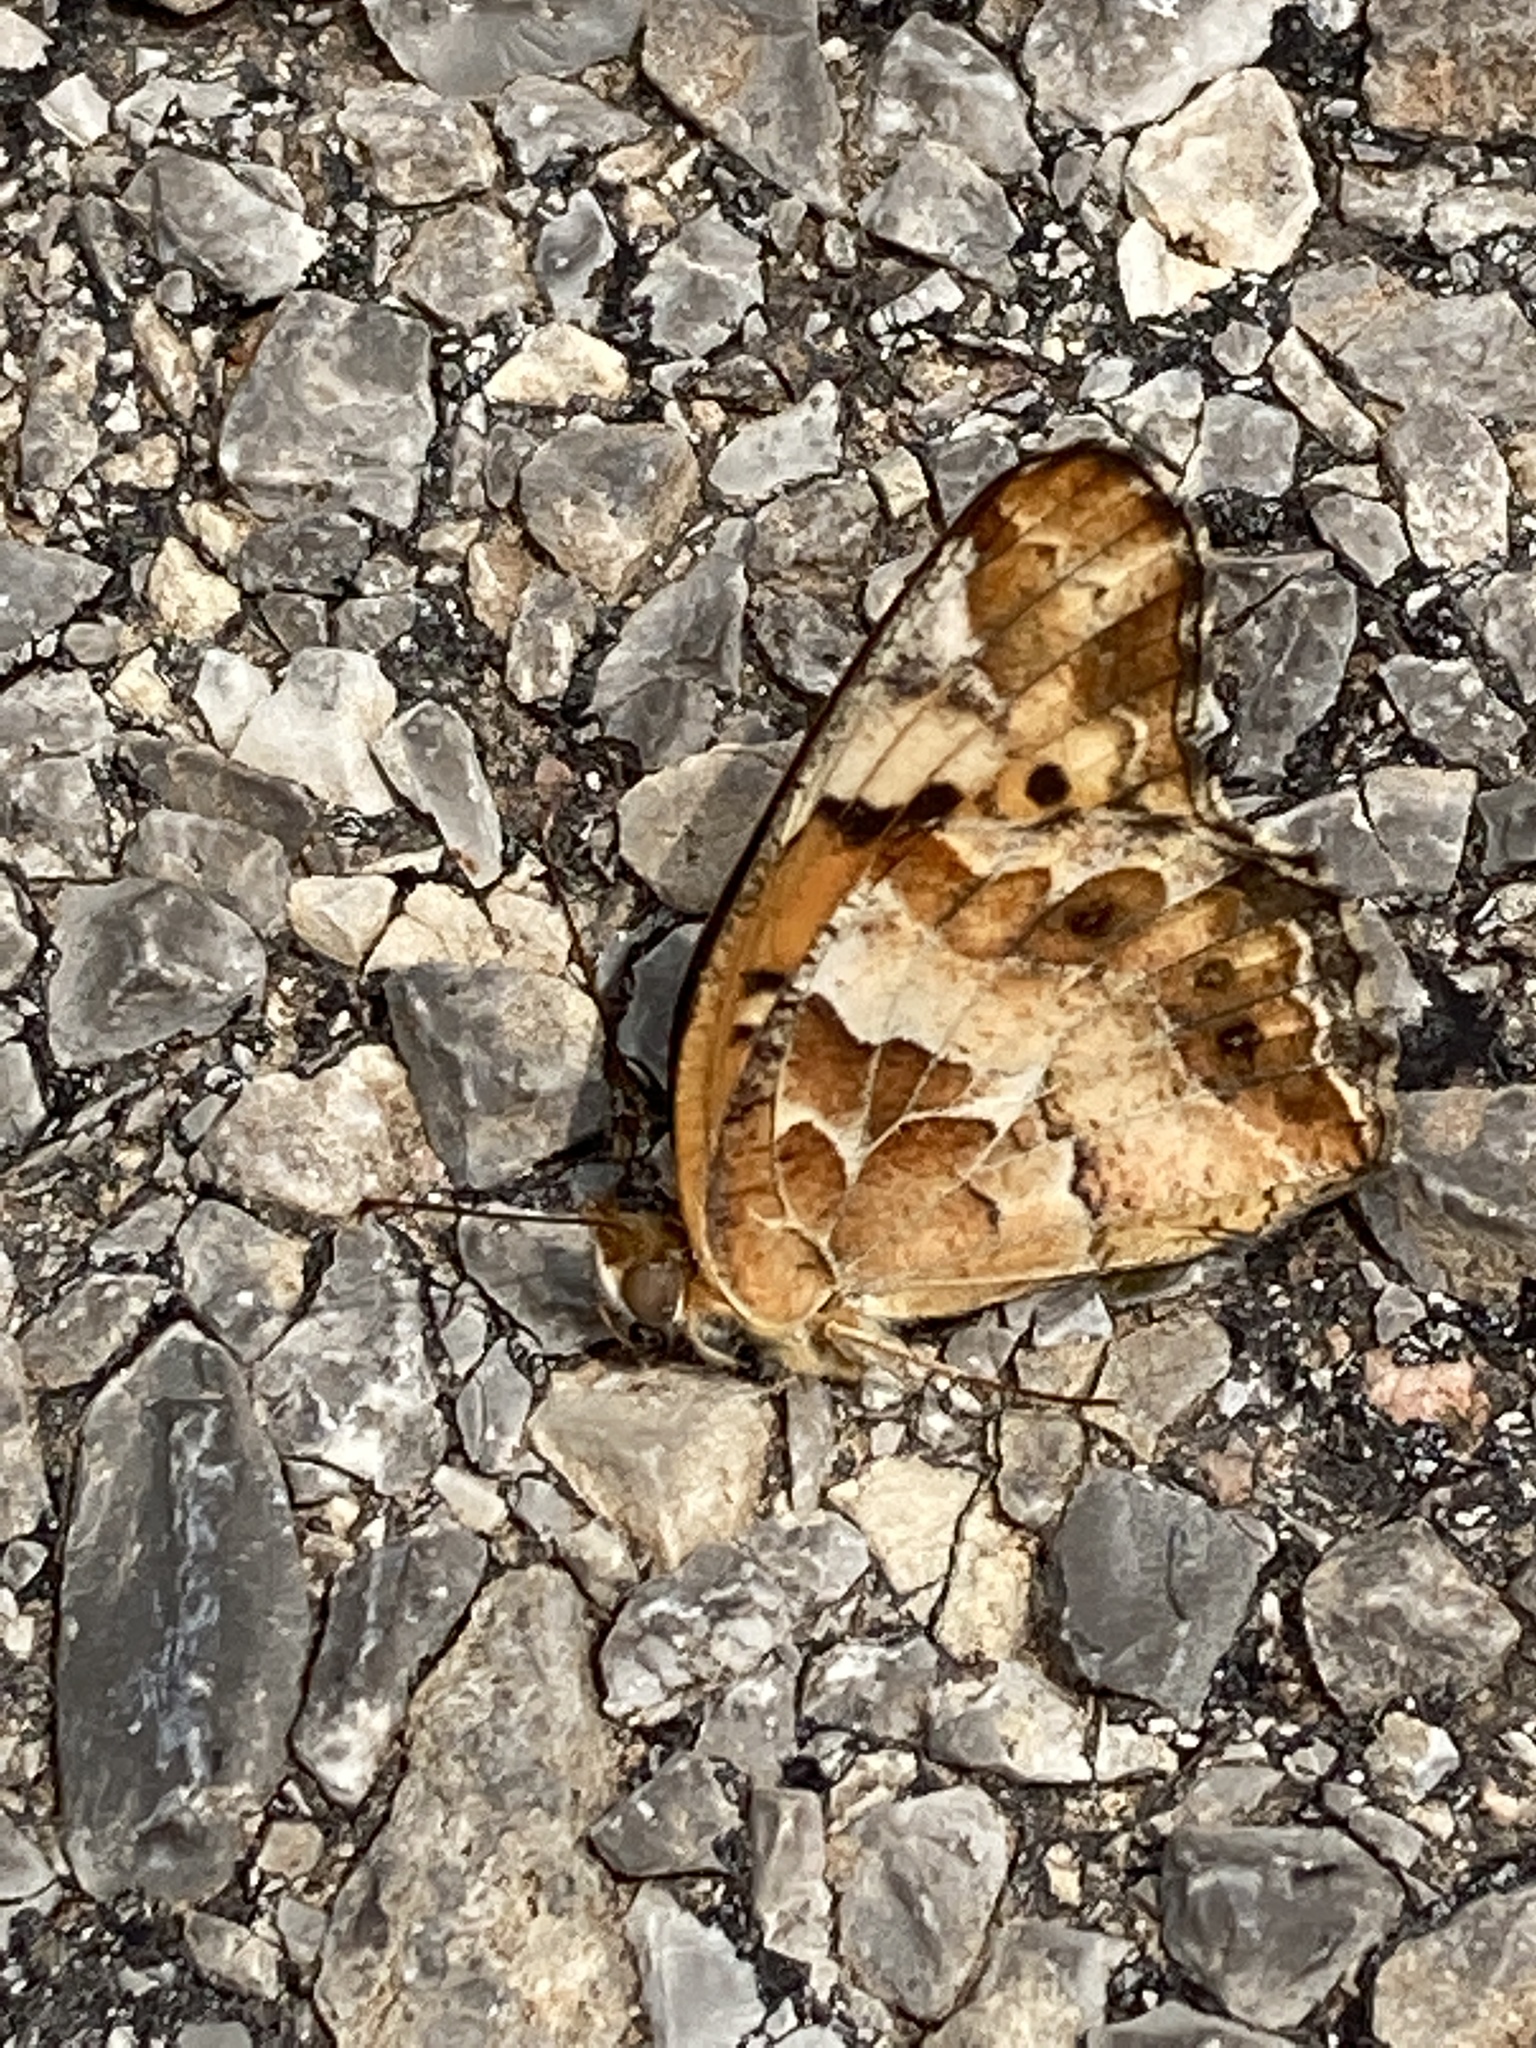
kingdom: Animalia
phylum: Arthropoda
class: Insecta
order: Lepidoptera
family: Nymphalidae
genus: Euptoieta
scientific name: Euptoieta claudia
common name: Variegated fritillary
